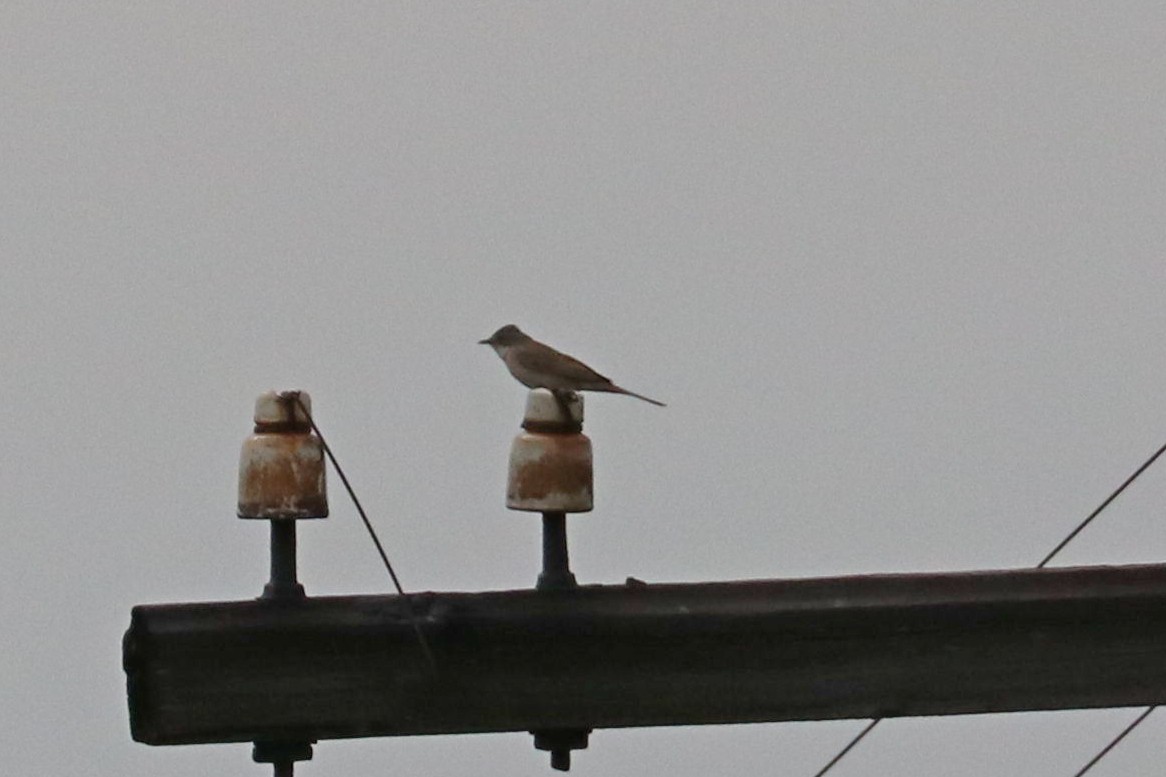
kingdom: Animalia
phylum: Chordata
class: Aves
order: Passeriformes
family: Sylviidae
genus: Sylvia
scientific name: Sylvia communis
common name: Common whitethroat
